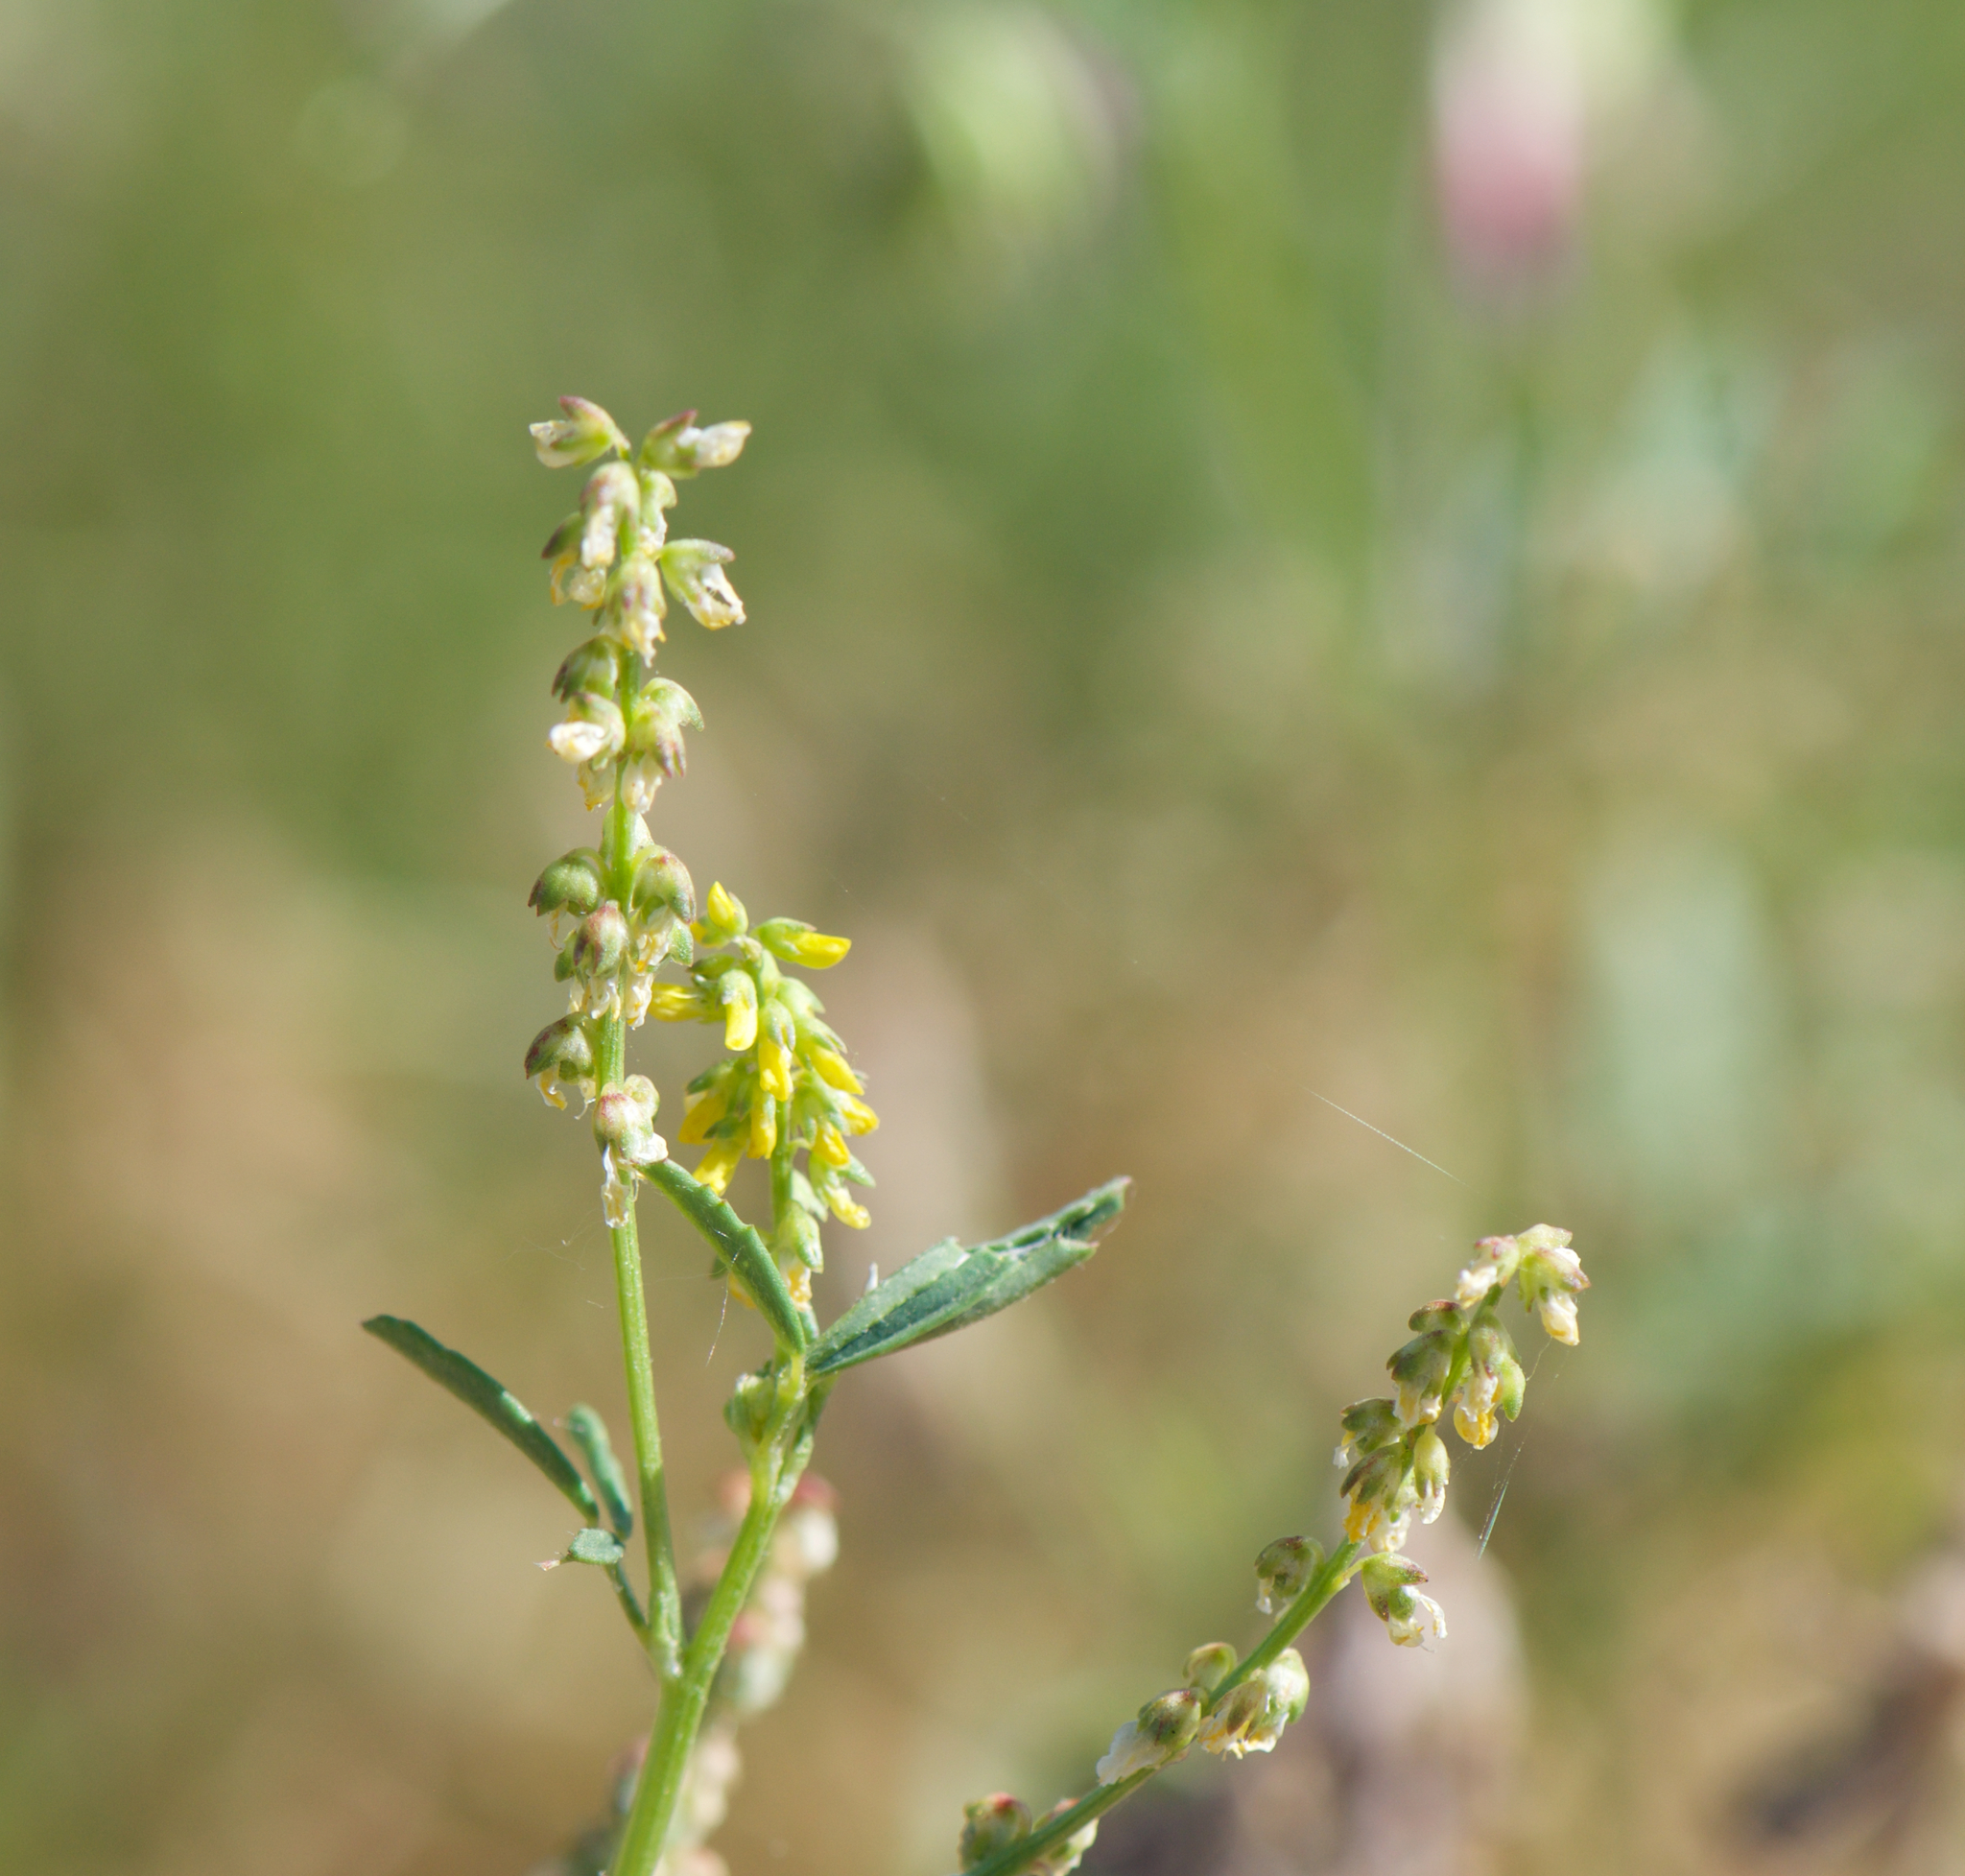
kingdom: Plantae
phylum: Tracheophyta
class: Magnoliopsida
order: Fabales
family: Fabaceae
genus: Melilotus
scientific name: Melilotus indicus
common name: Small melilot
